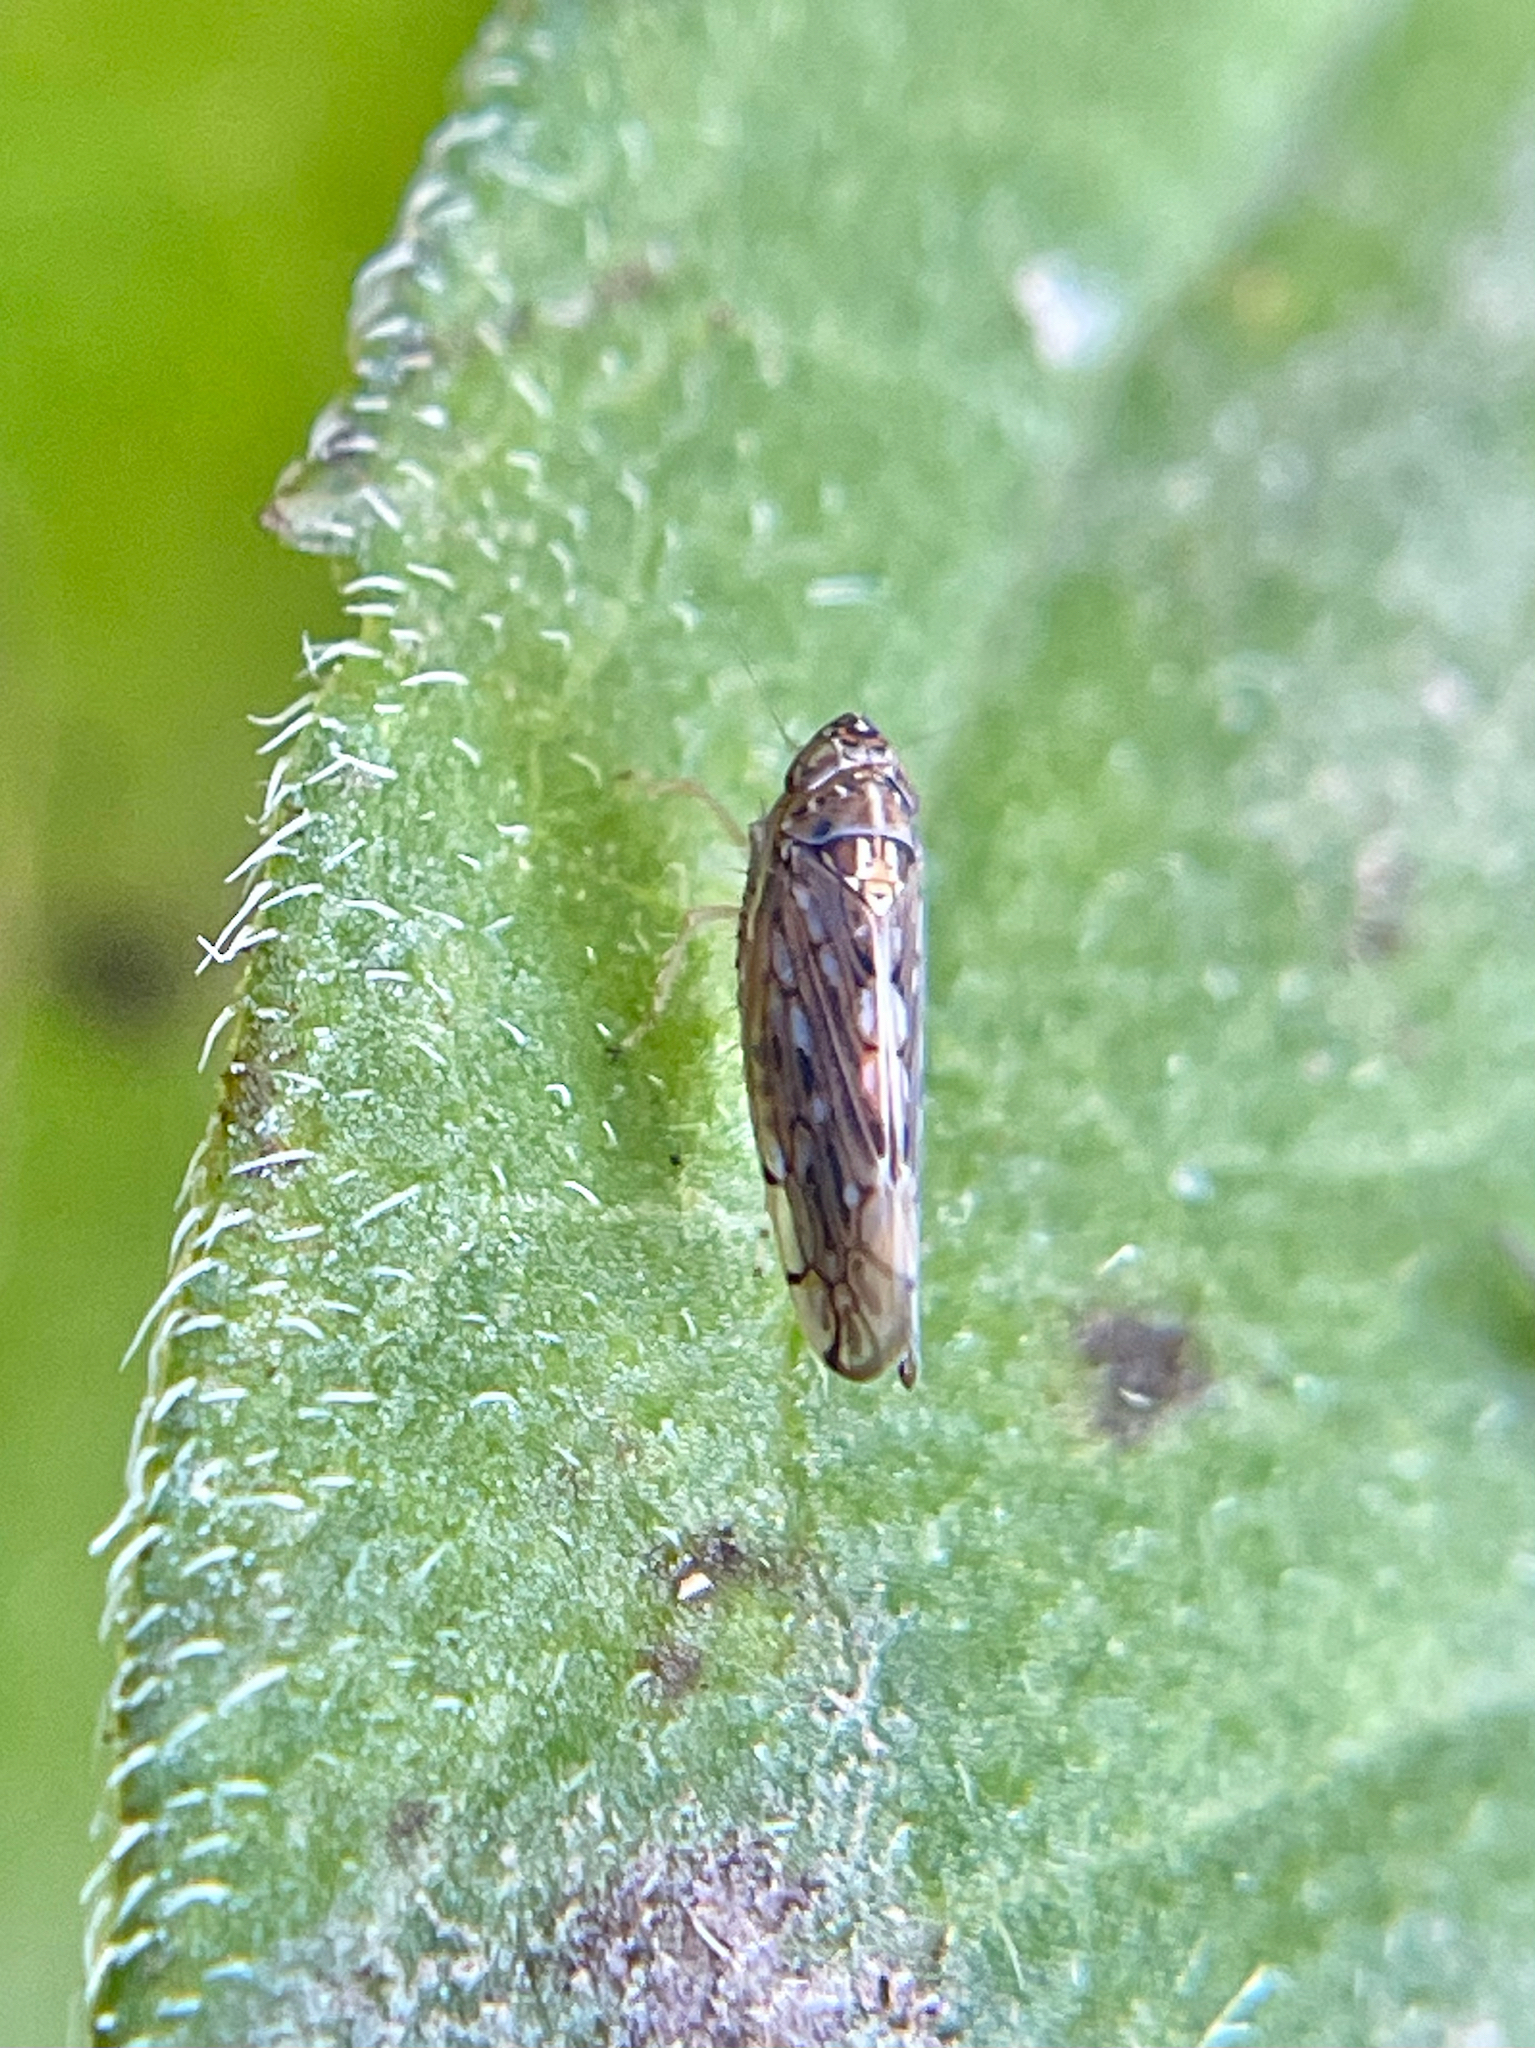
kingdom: Animalia
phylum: Arthropoda
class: Insecta
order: Hemiptera
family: Cicadellidae
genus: Osbornellus
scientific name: Osbornellus clarus
